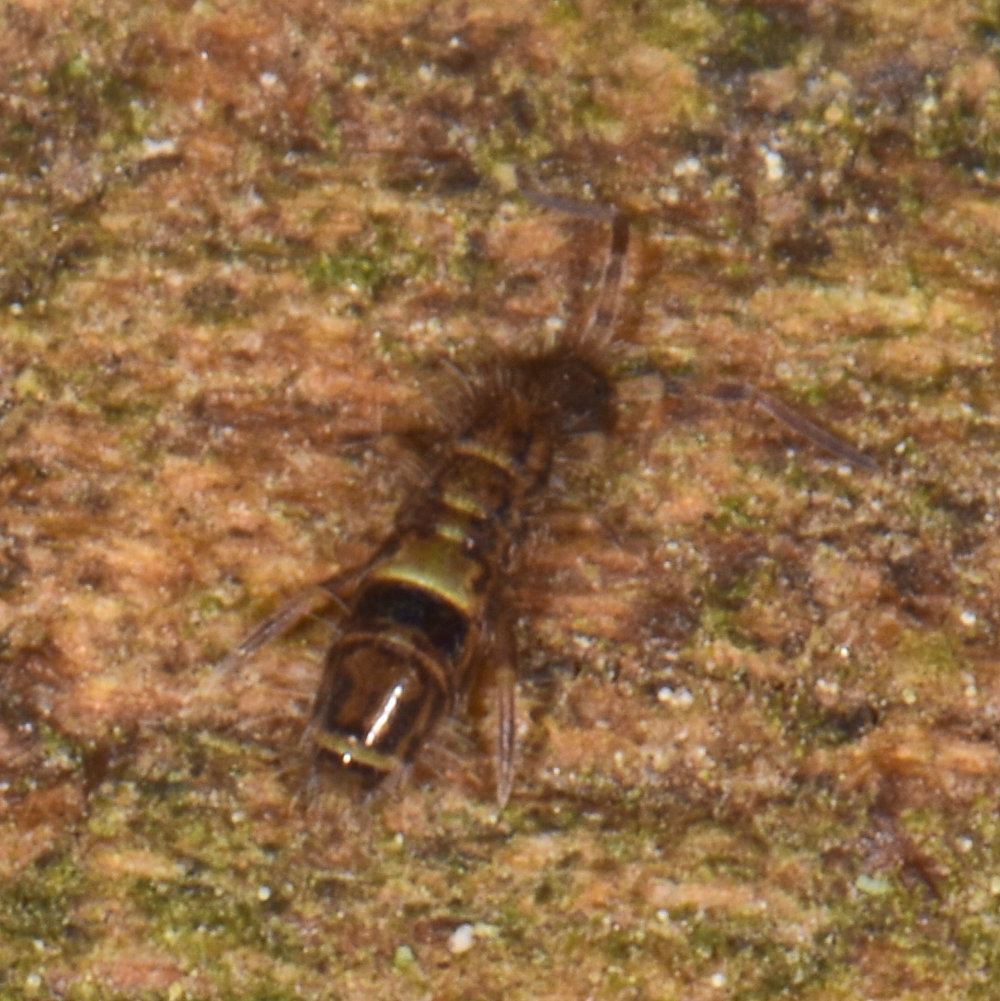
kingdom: Animalia
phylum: Arthropoda
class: Collembola
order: Entomobryomorpha
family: Orchesellidae
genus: Orchesella
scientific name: Orchesella cincta
